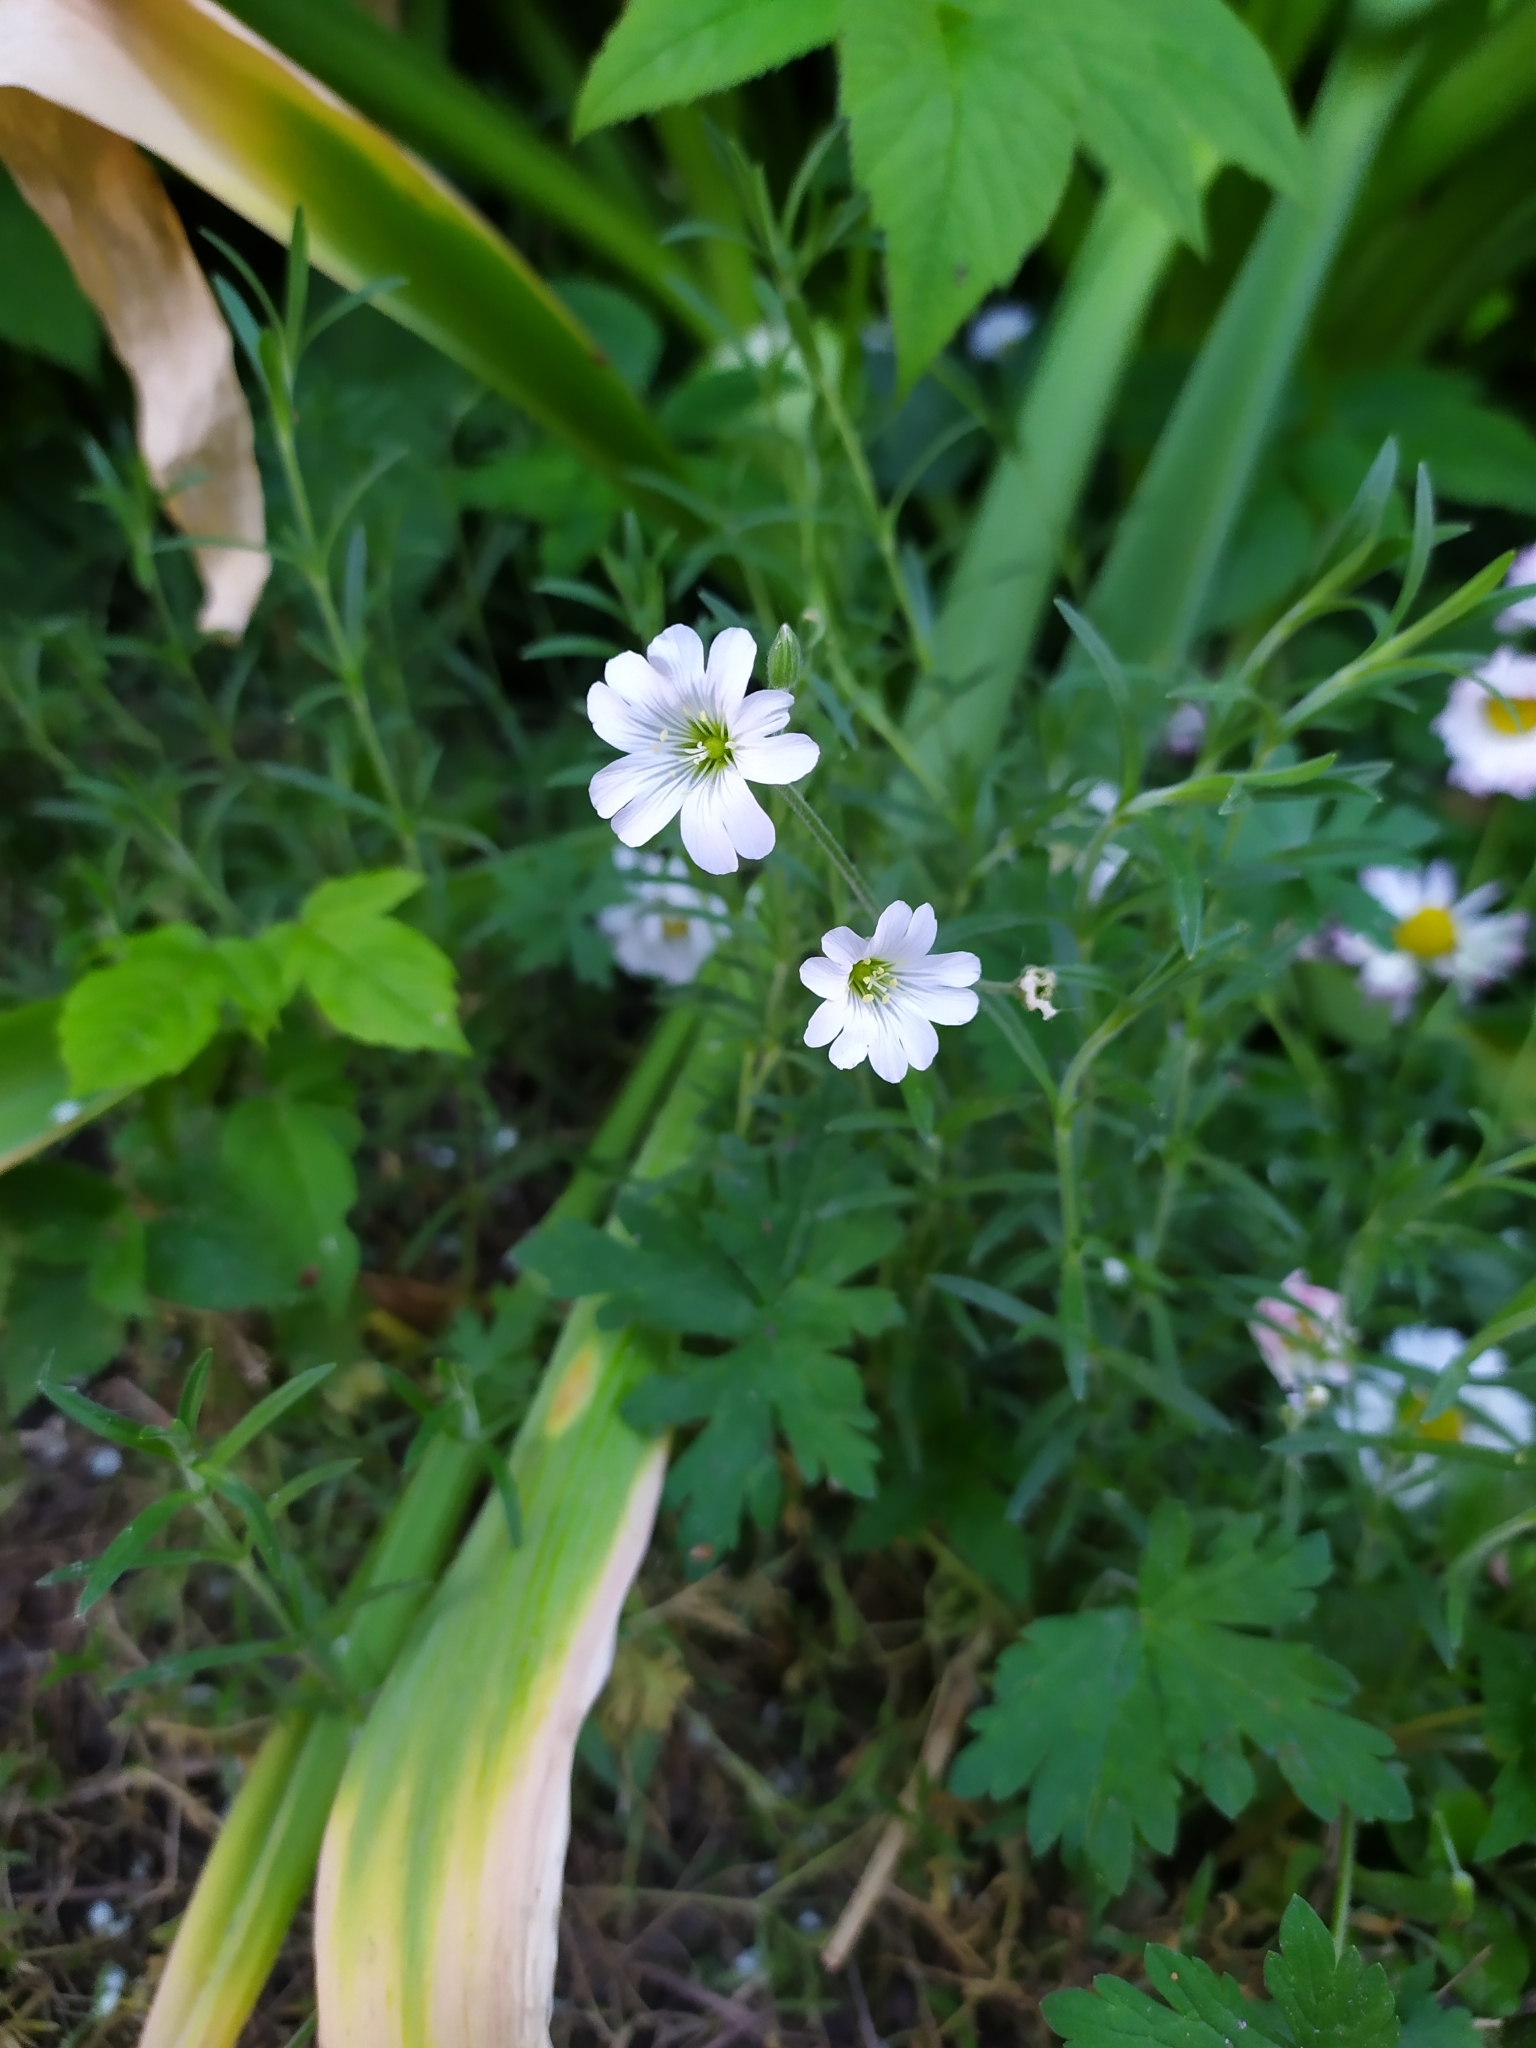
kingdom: Plantae
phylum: Tracheophyta
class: Magnoliopsida
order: Caryophyllales
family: Caryophyllaceae
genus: Cerastium
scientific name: Cerastium arvense
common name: Field mouse-ear
